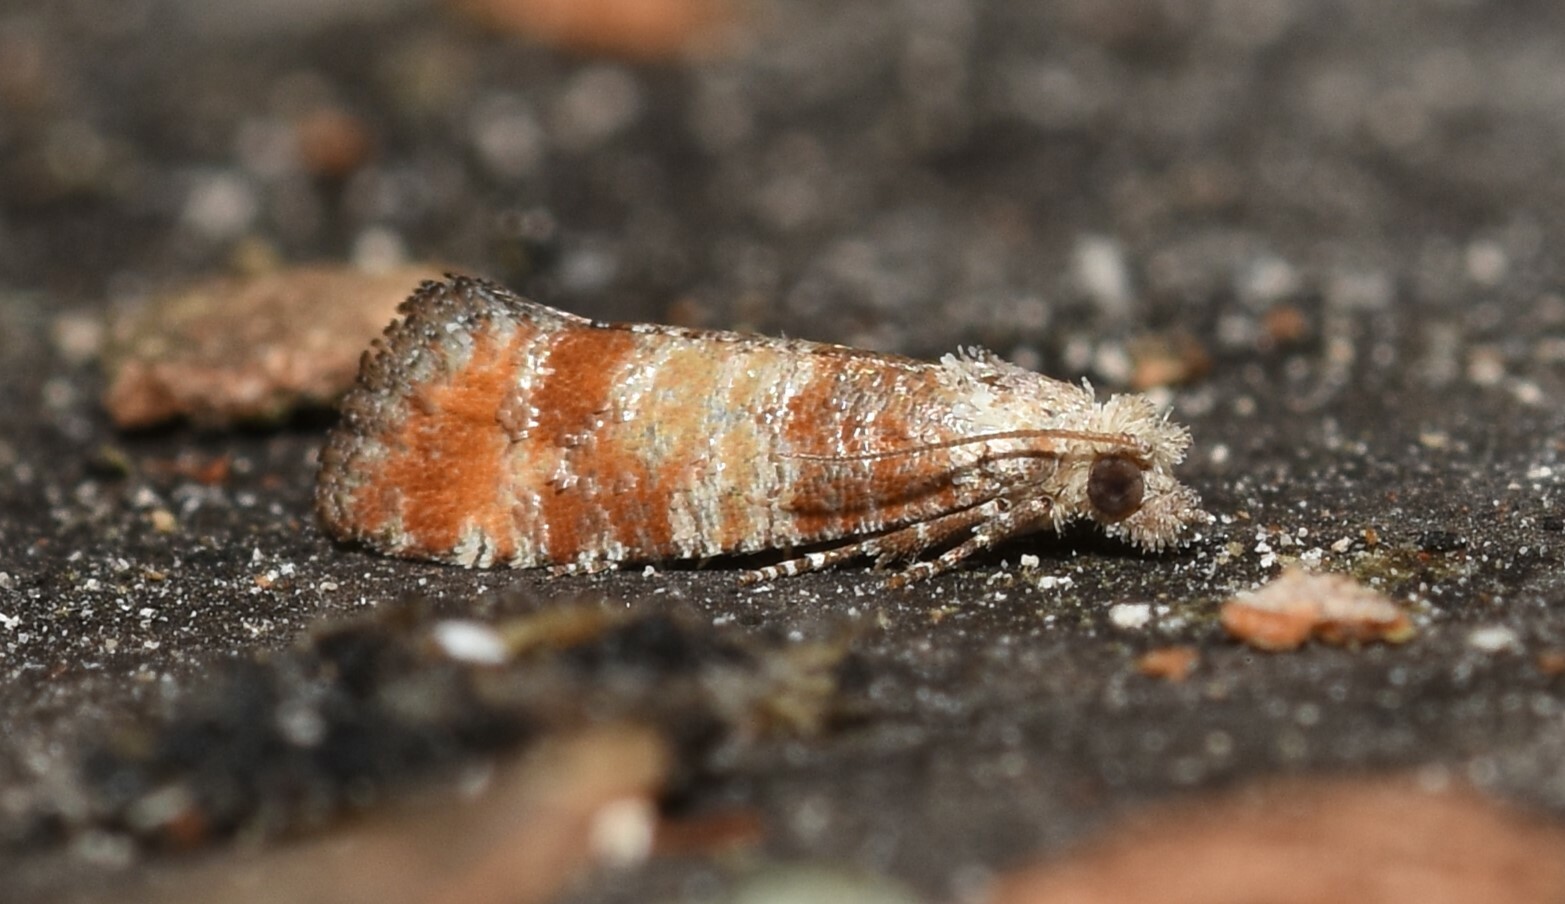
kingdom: Animalia
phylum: Arthropoda
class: Insecta
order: Lepidoptera
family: Tortricidae
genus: Rhyacionia
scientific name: Rhyacionia rigidana
